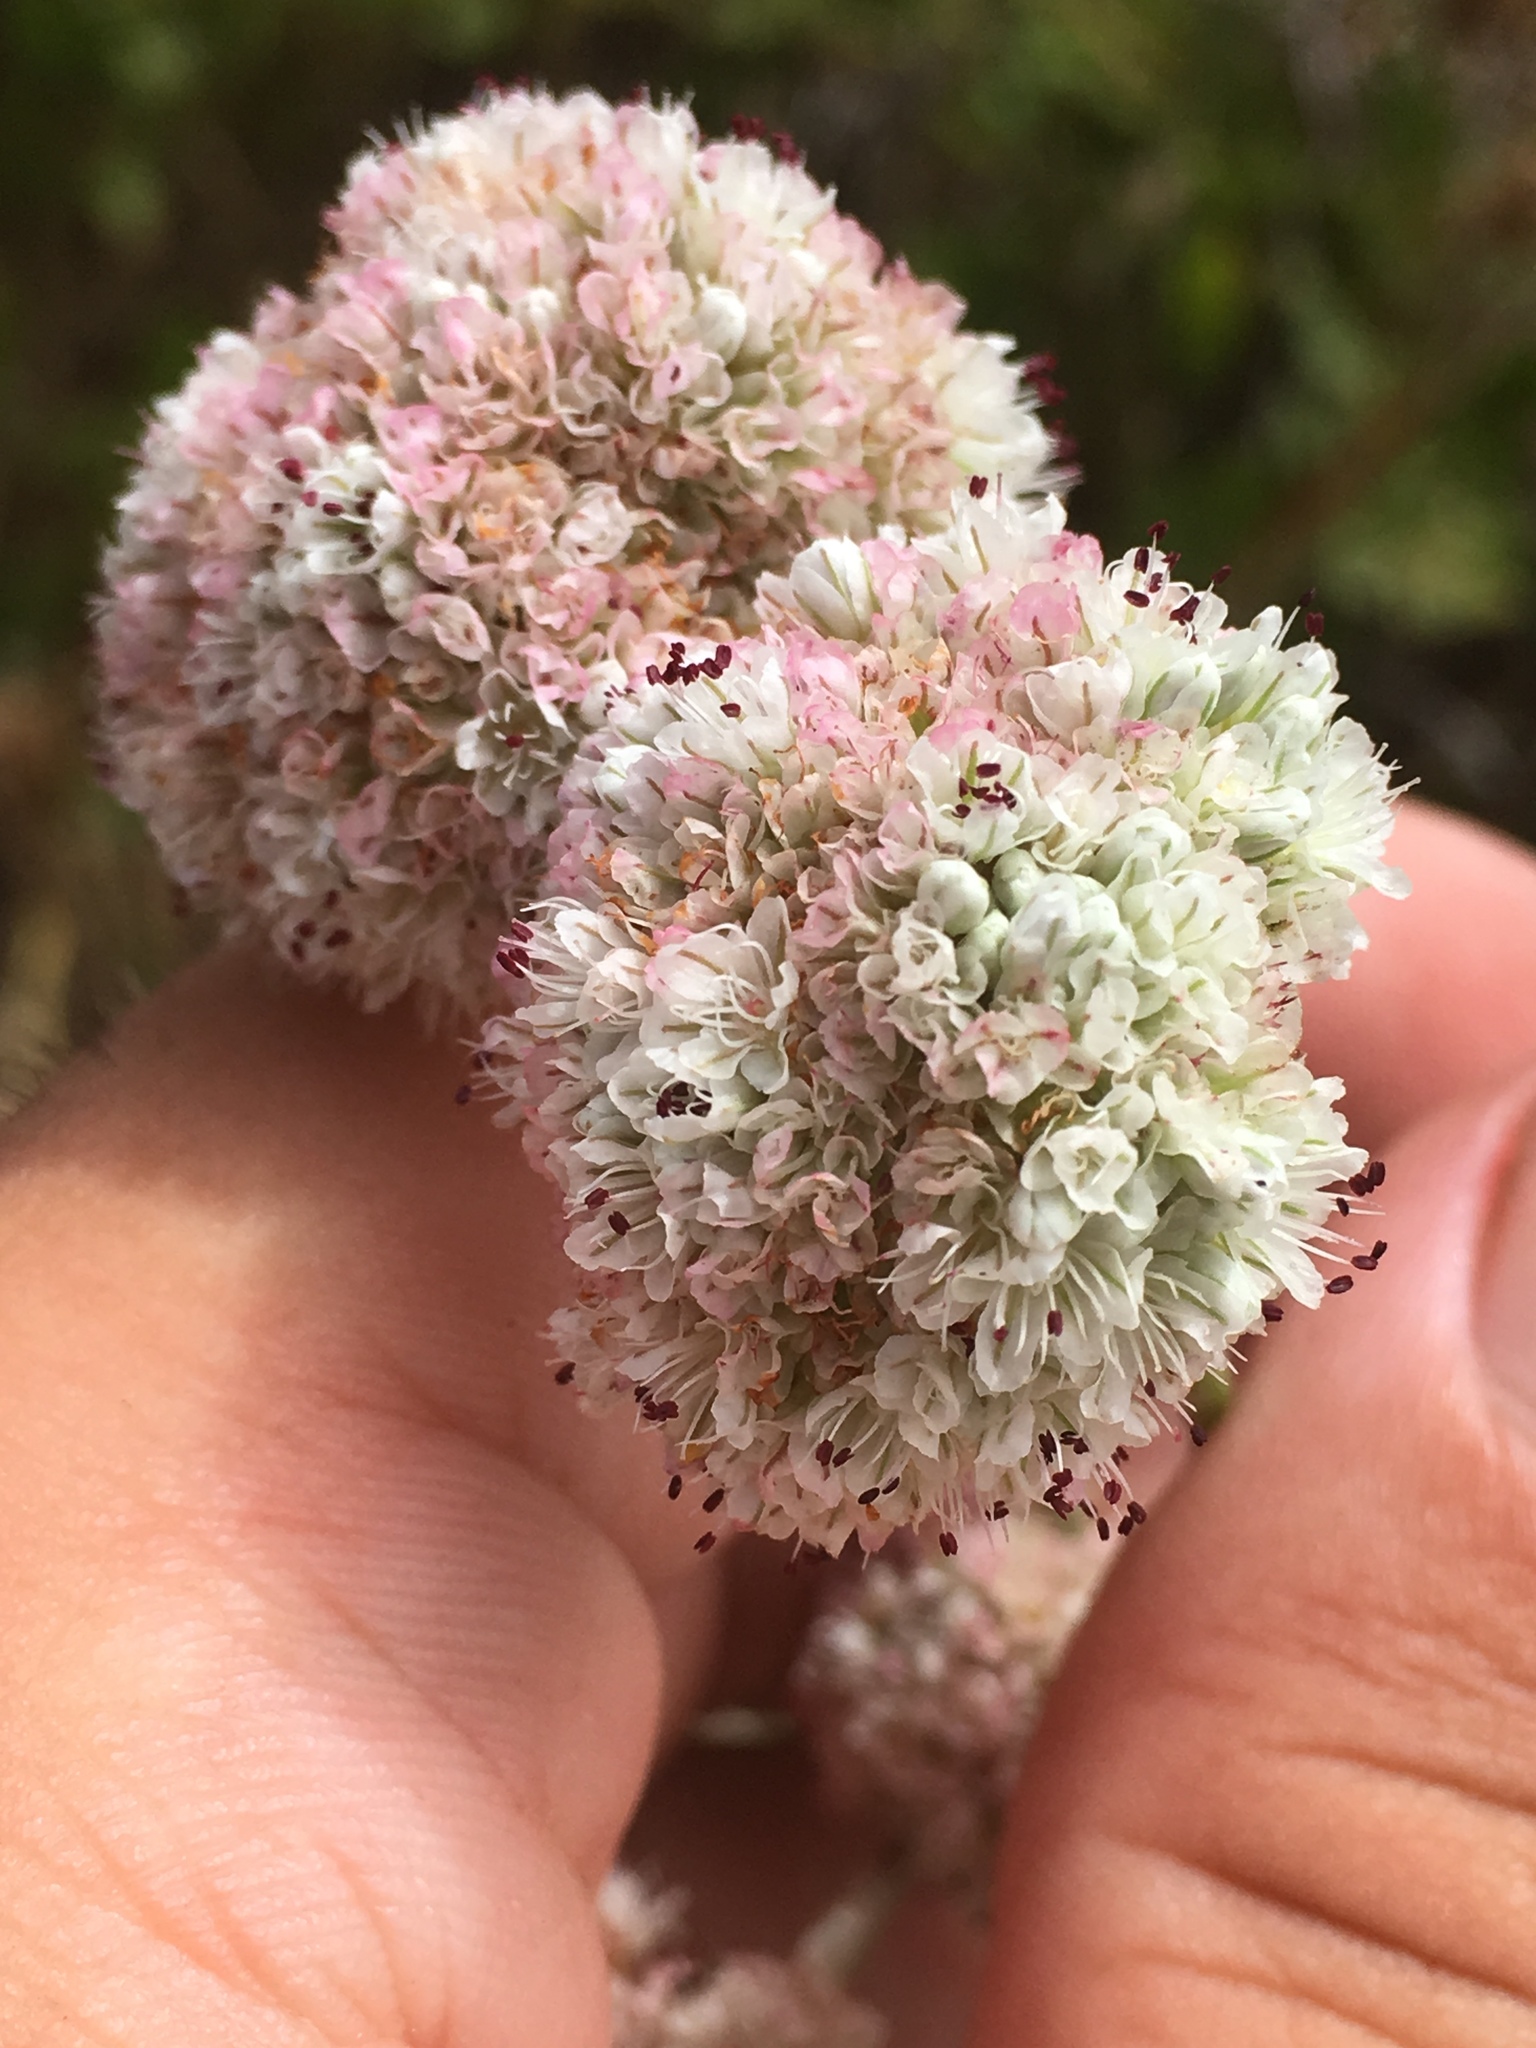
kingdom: Plantae
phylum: Tracheophyta
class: Magnoliopsida
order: Caryophyllales
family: Polygonaceae
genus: Eriogonum
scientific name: Eriogonum latifolium
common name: Seaside wild buckwheat
